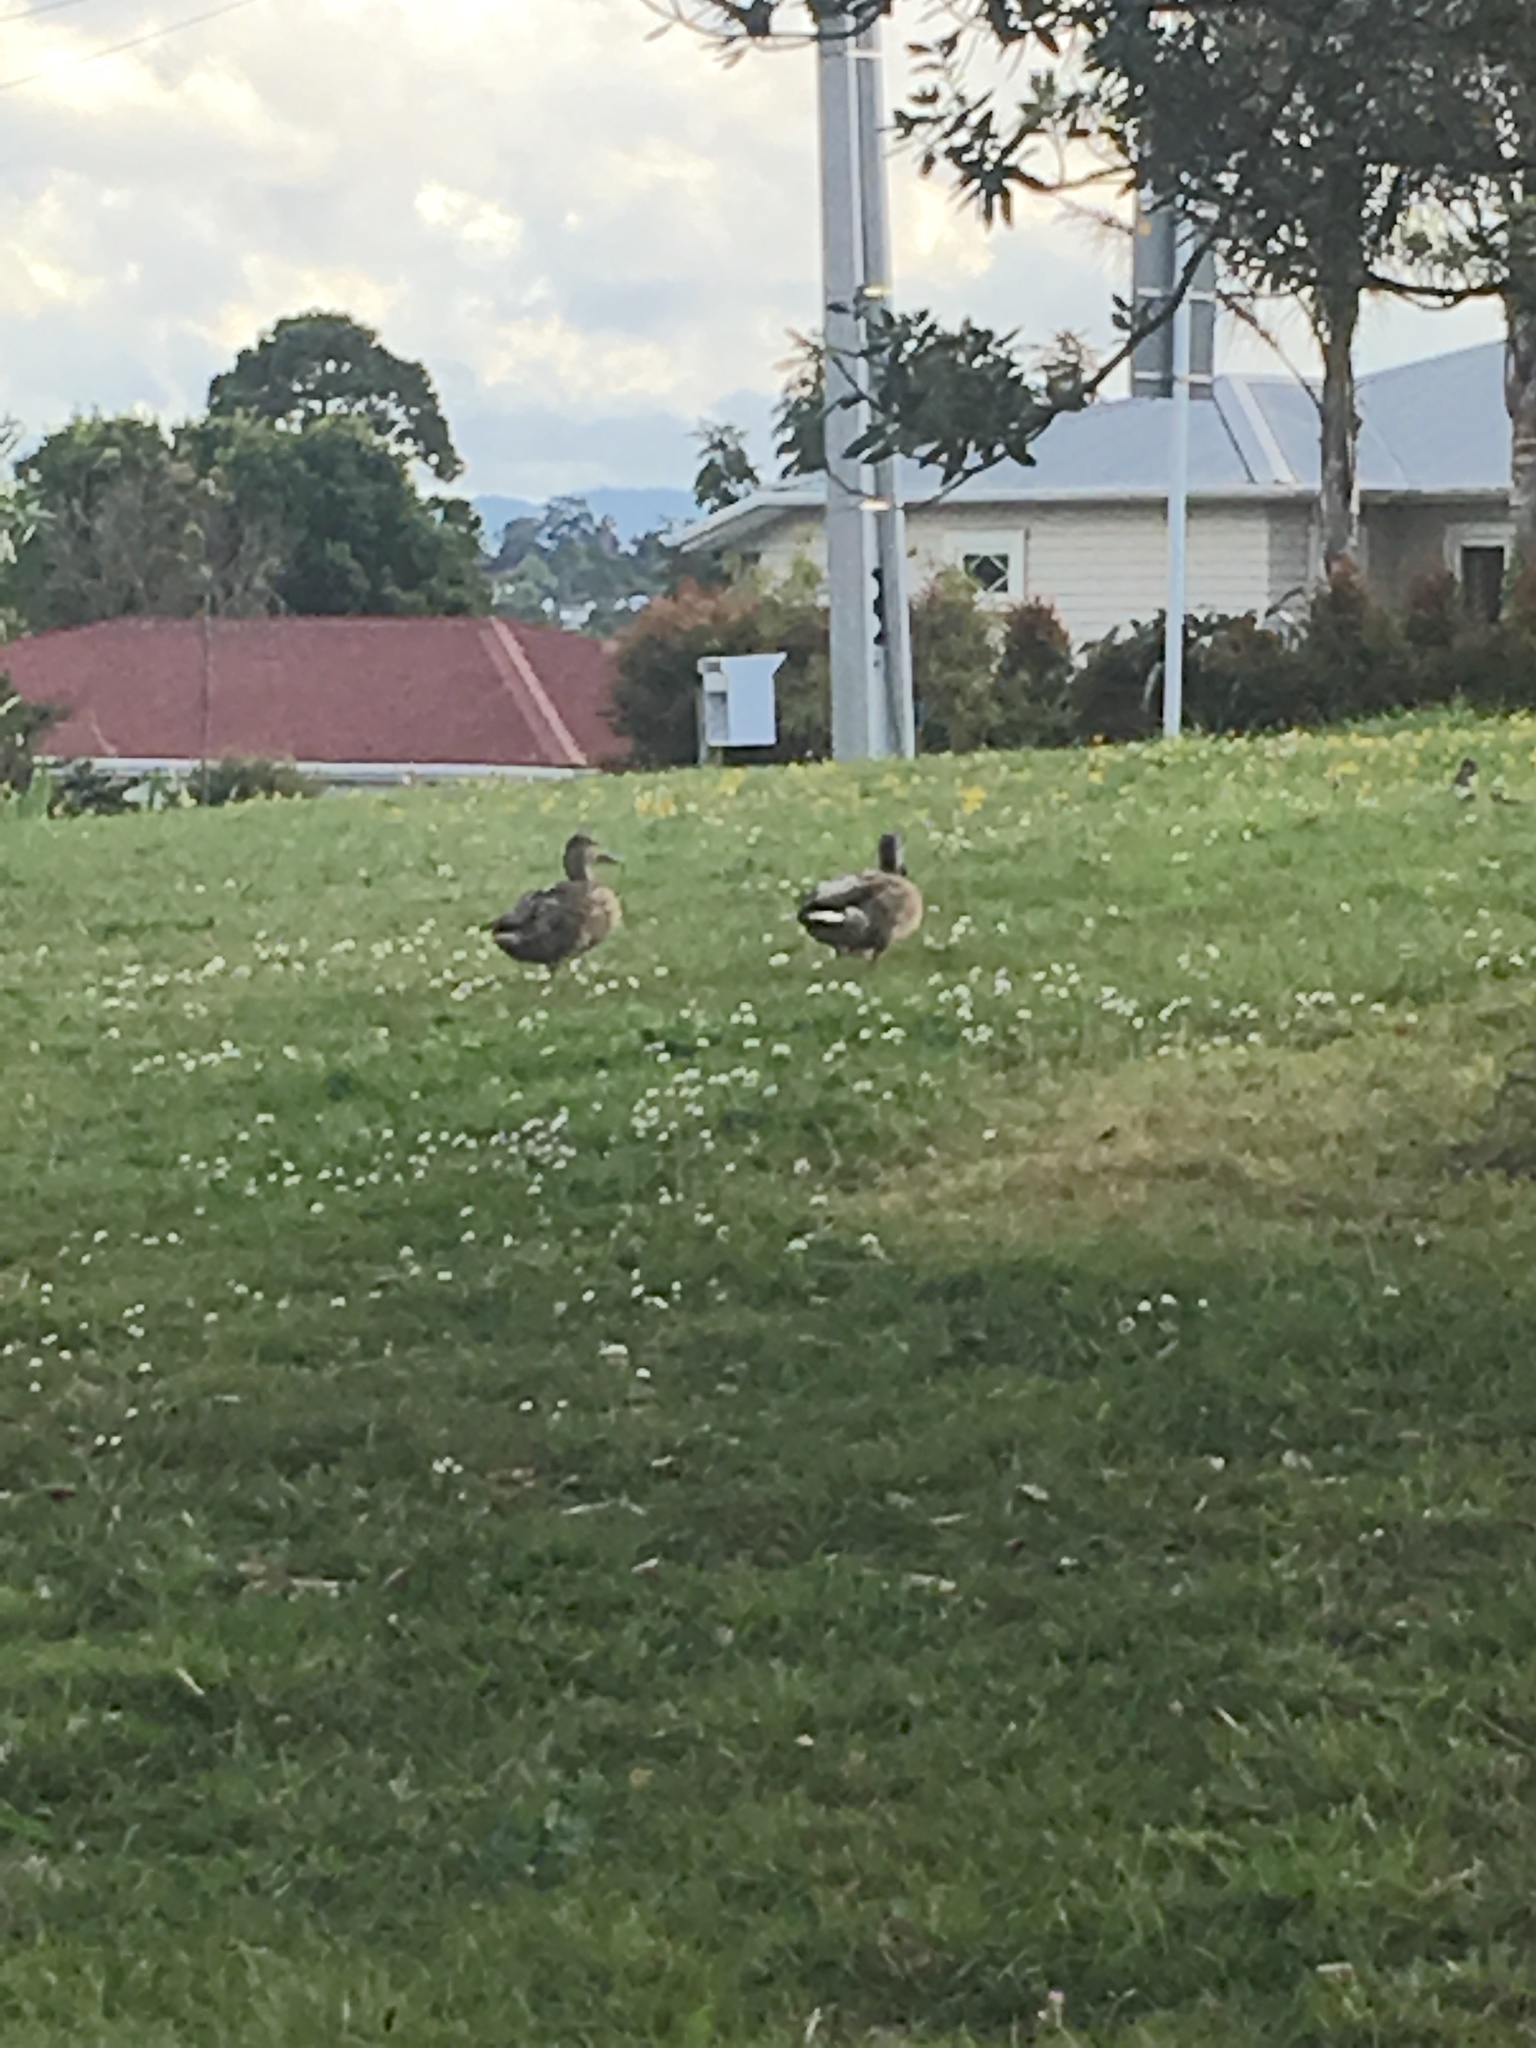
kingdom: Animalia
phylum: Chordata
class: Aves
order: Anseriformes
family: Anatidae
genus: Anas
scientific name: Anas platyrhynchos
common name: Mallard
